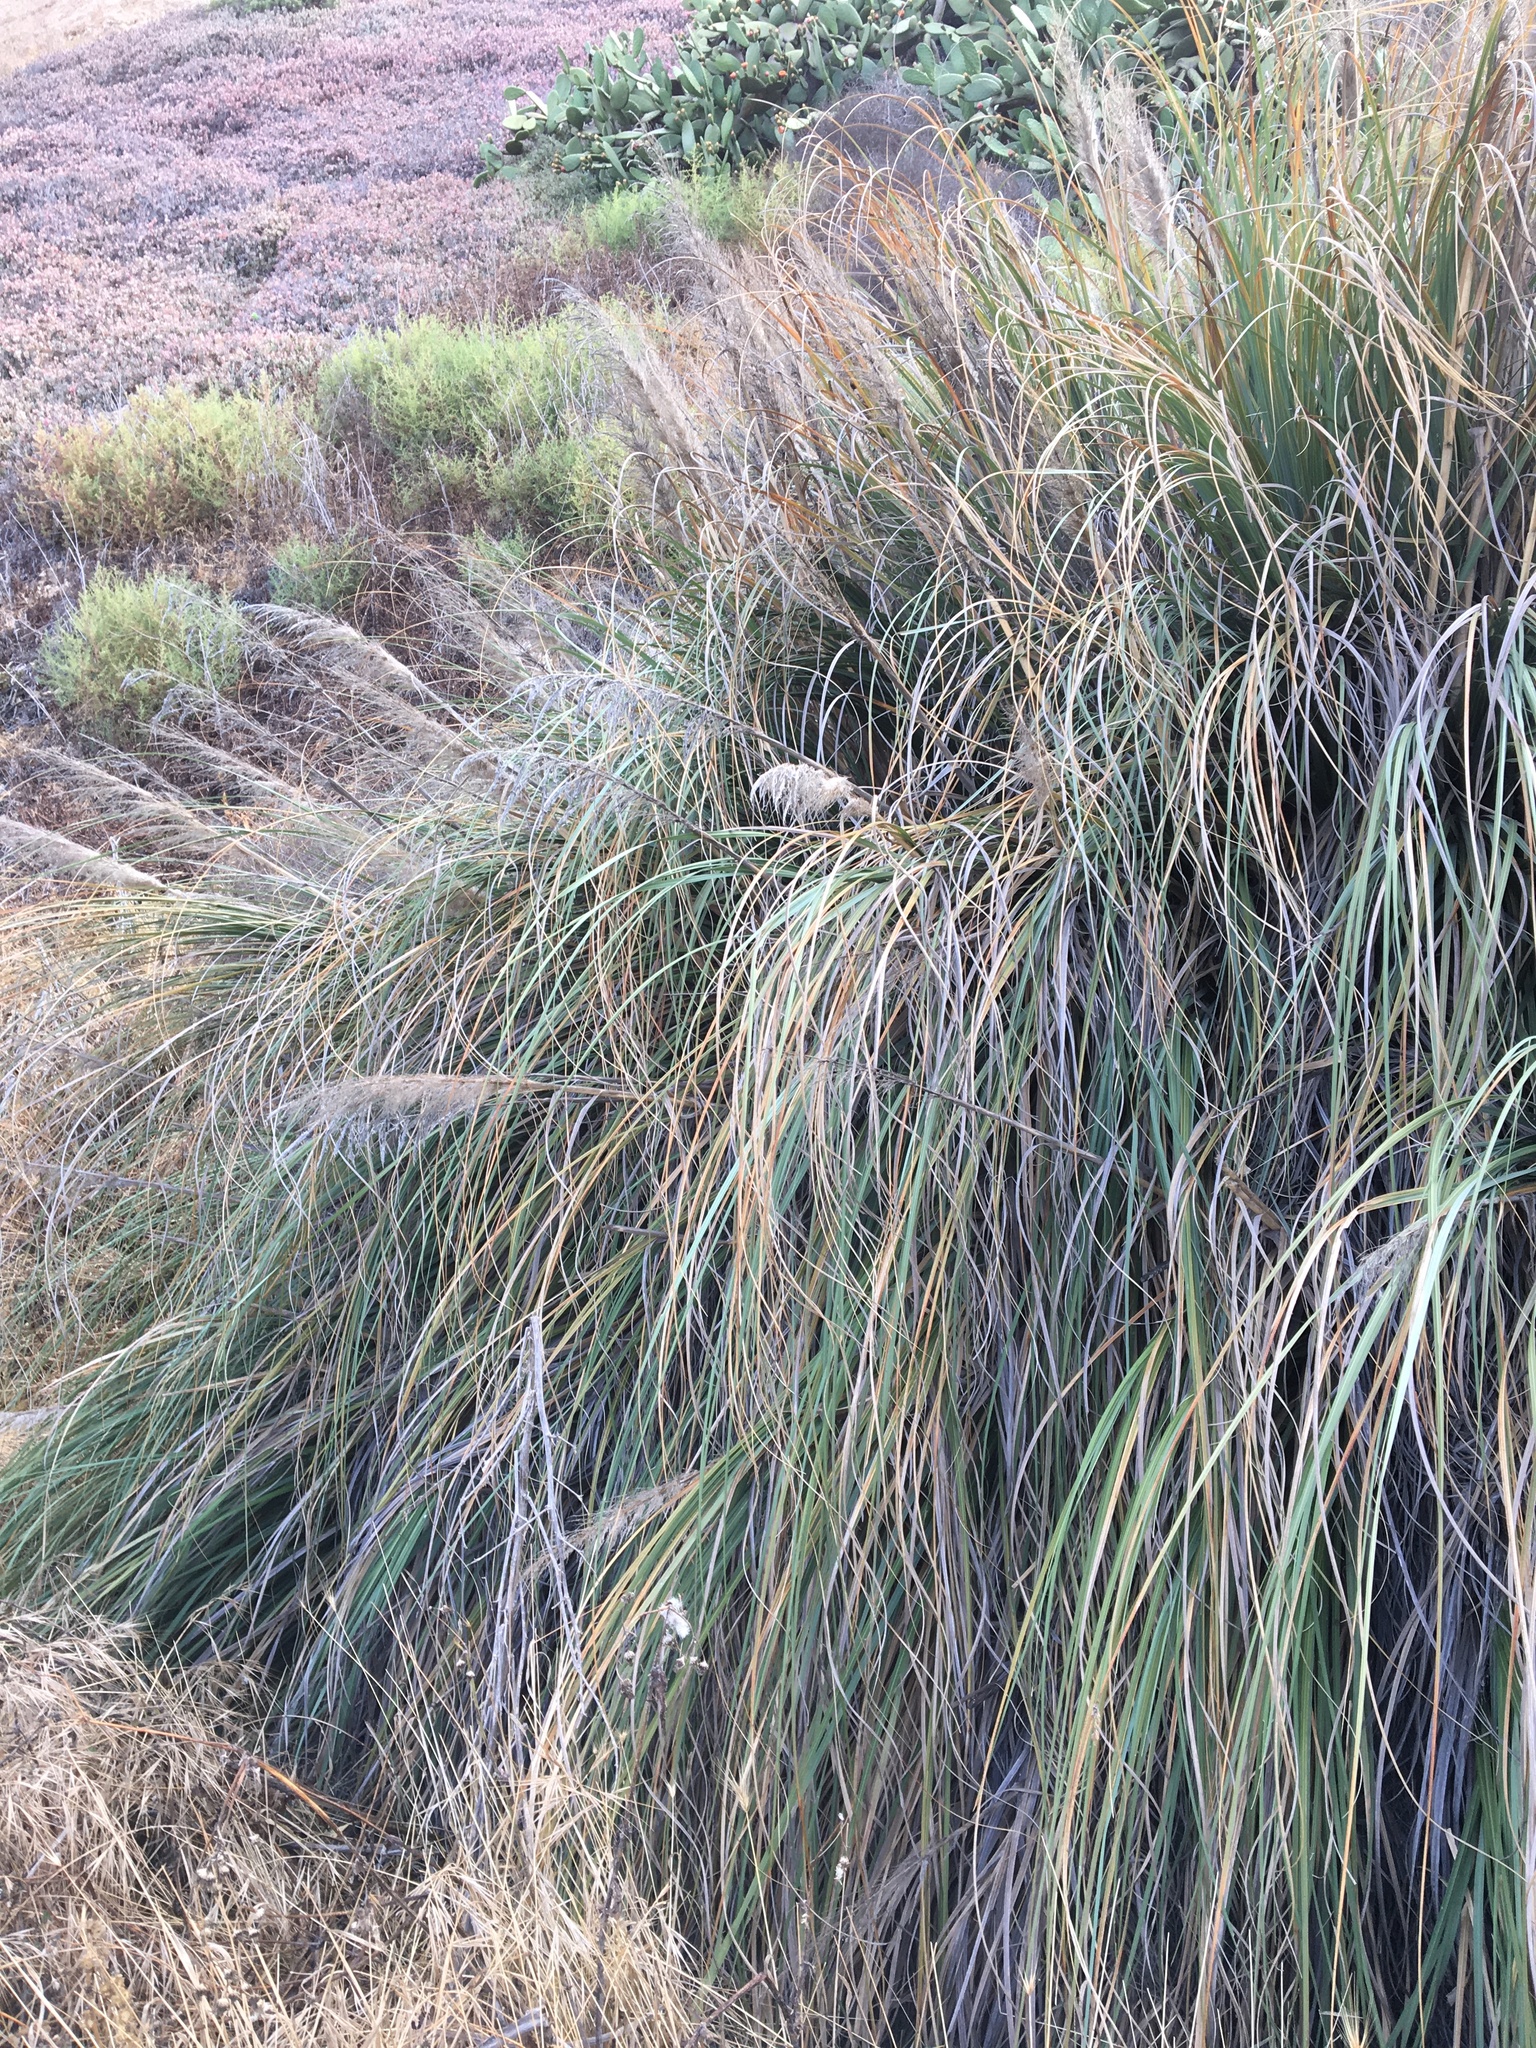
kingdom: Plantae
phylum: Tracheophyta
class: Liliopsida
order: Poales
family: Poaceae
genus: Cortaderia
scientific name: Cortaderia selloana
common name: Uruguayan pampas grass
